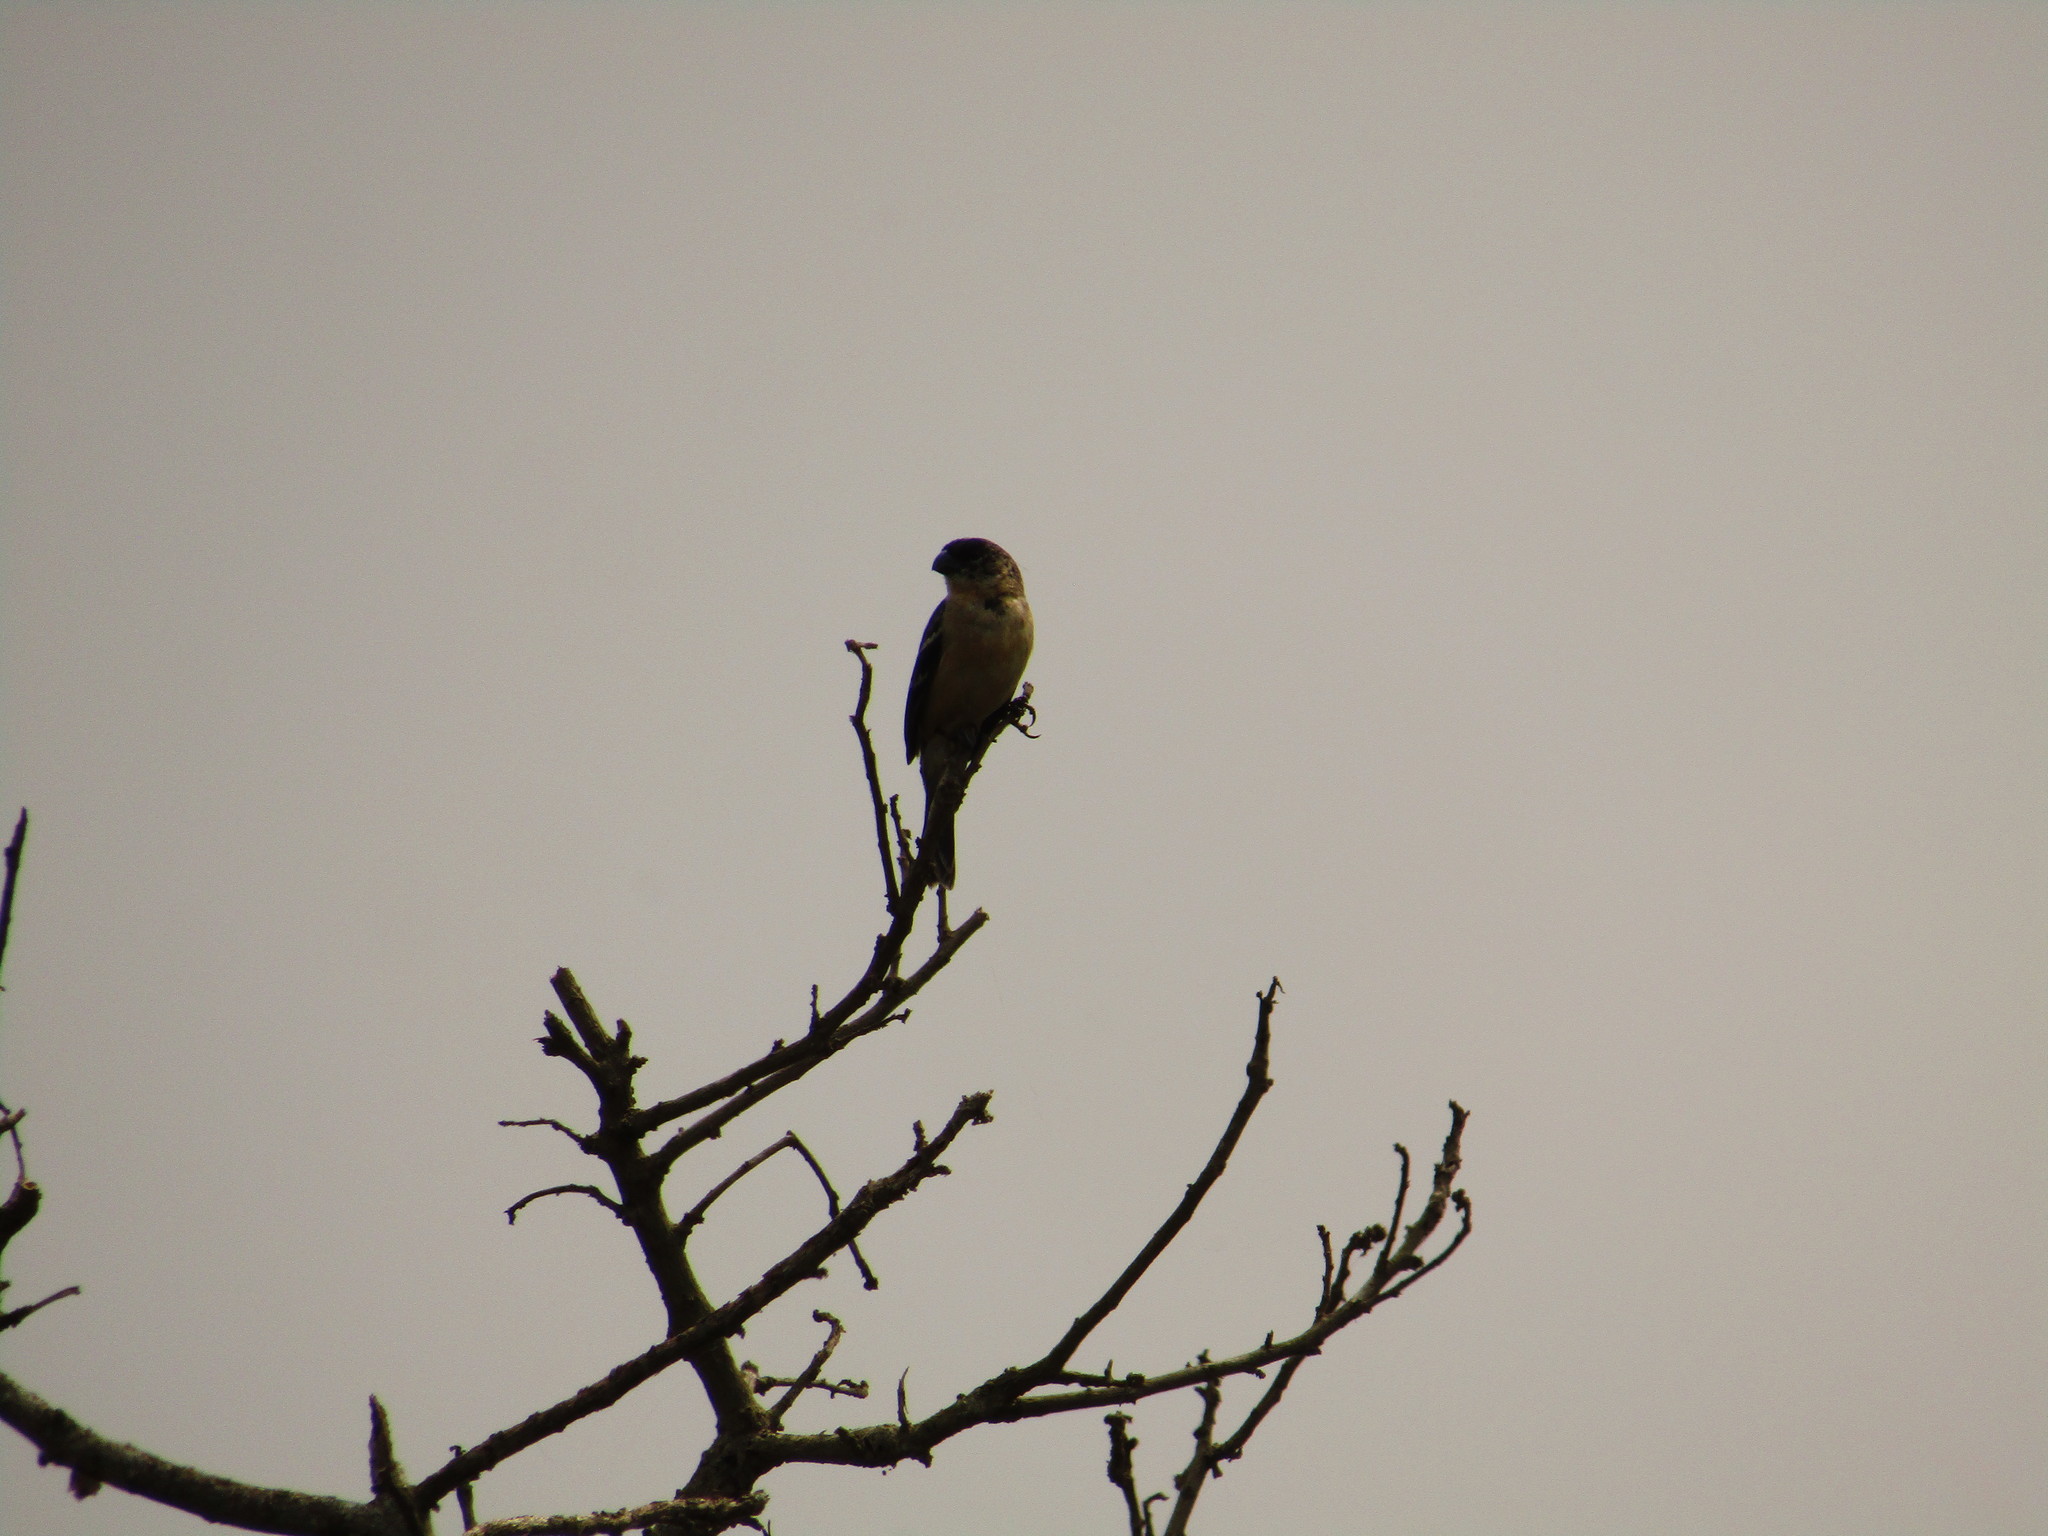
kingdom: Animalia
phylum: Chordata
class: Aves
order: Passeriformes
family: Thraupidae
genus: Sporophila
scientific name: Sporophila morelleti
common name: Morelet's seedeater
